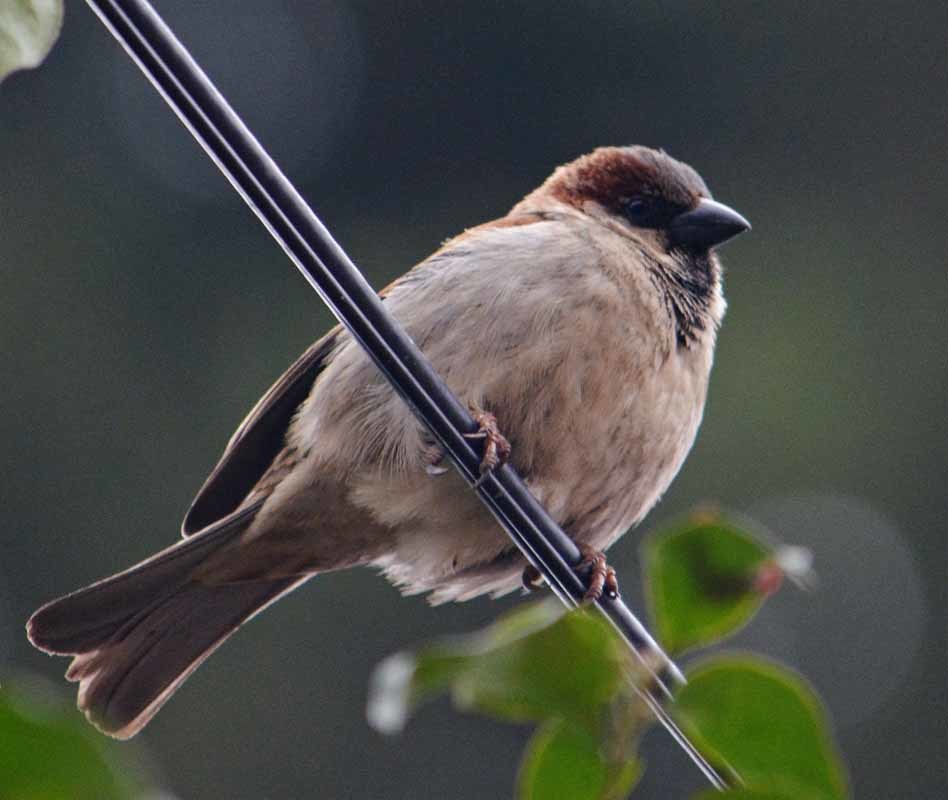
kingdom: Animalia
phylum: Chordata
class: Aves
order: Passeriformes
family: Passeridae
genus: Passer
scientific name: Passer domesticus
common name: House sparrow
